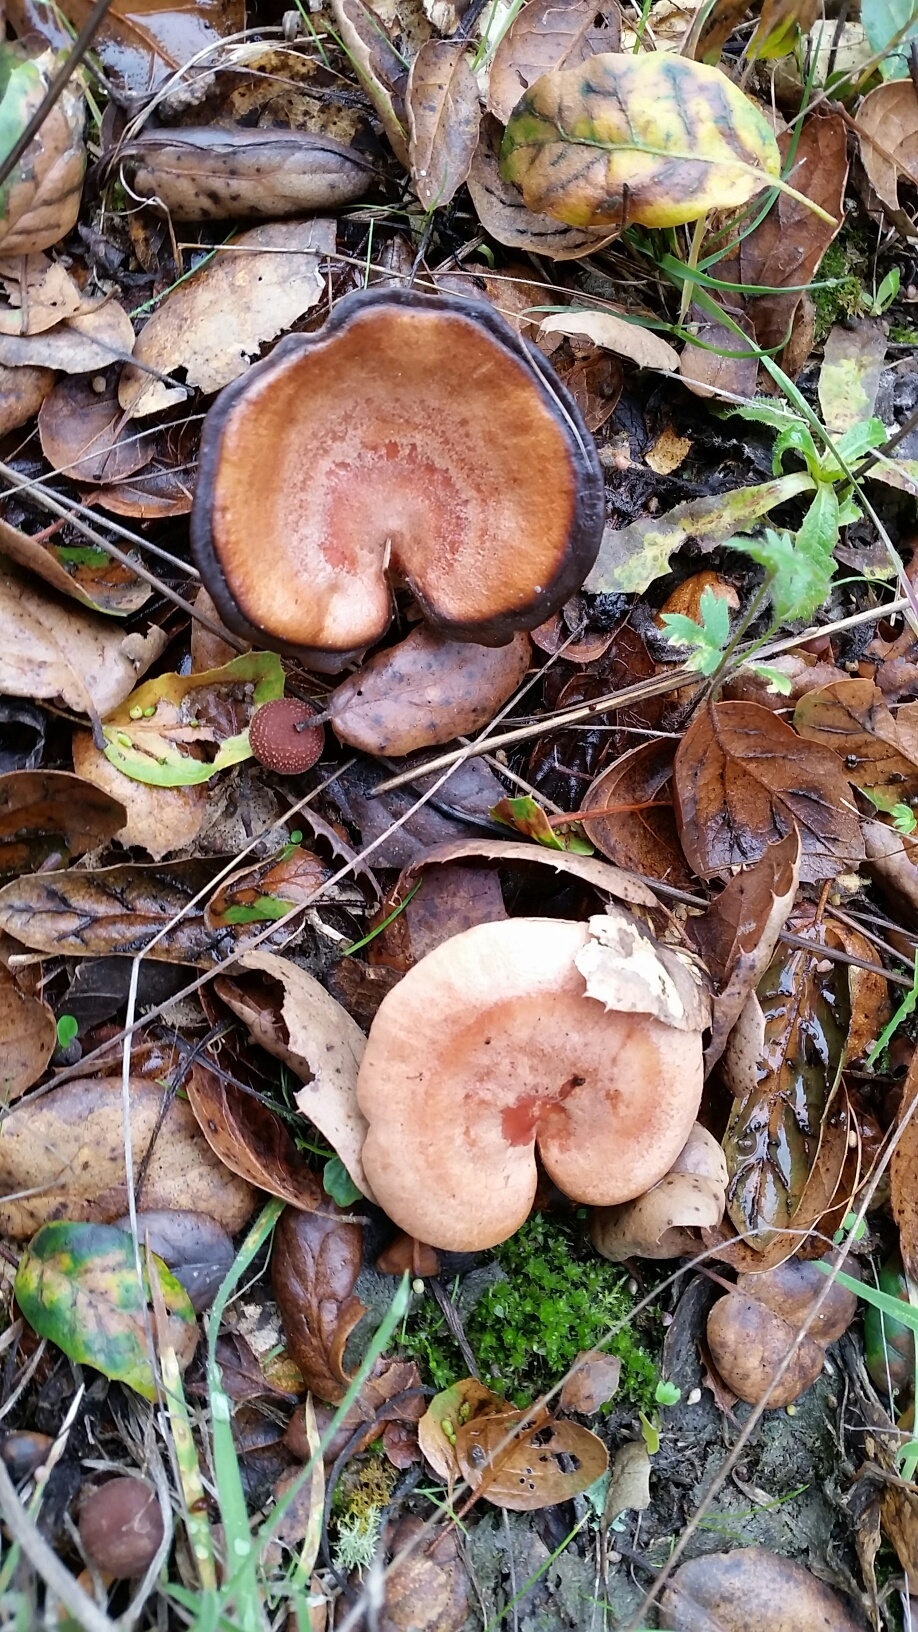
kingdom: Fungi
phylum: Basidiomycota
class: Agaricomycetes
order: Russulales
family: Russulaceae
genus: Lactarius
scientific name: Lactarius xanthogalactus
